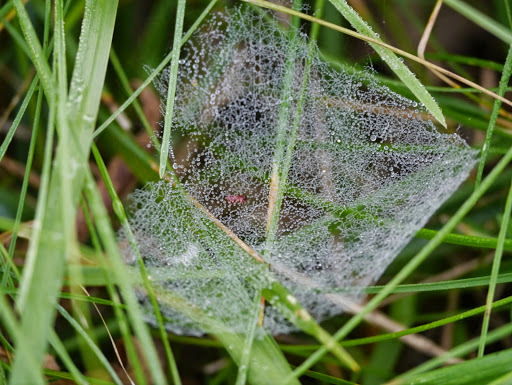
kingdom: Animalia
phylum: Arthropoda
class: Arachnida
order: Araneae
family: Linyphiidae
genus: Florinda
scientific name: Florinda coccinea
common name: Black-tailed red sheetweaver
